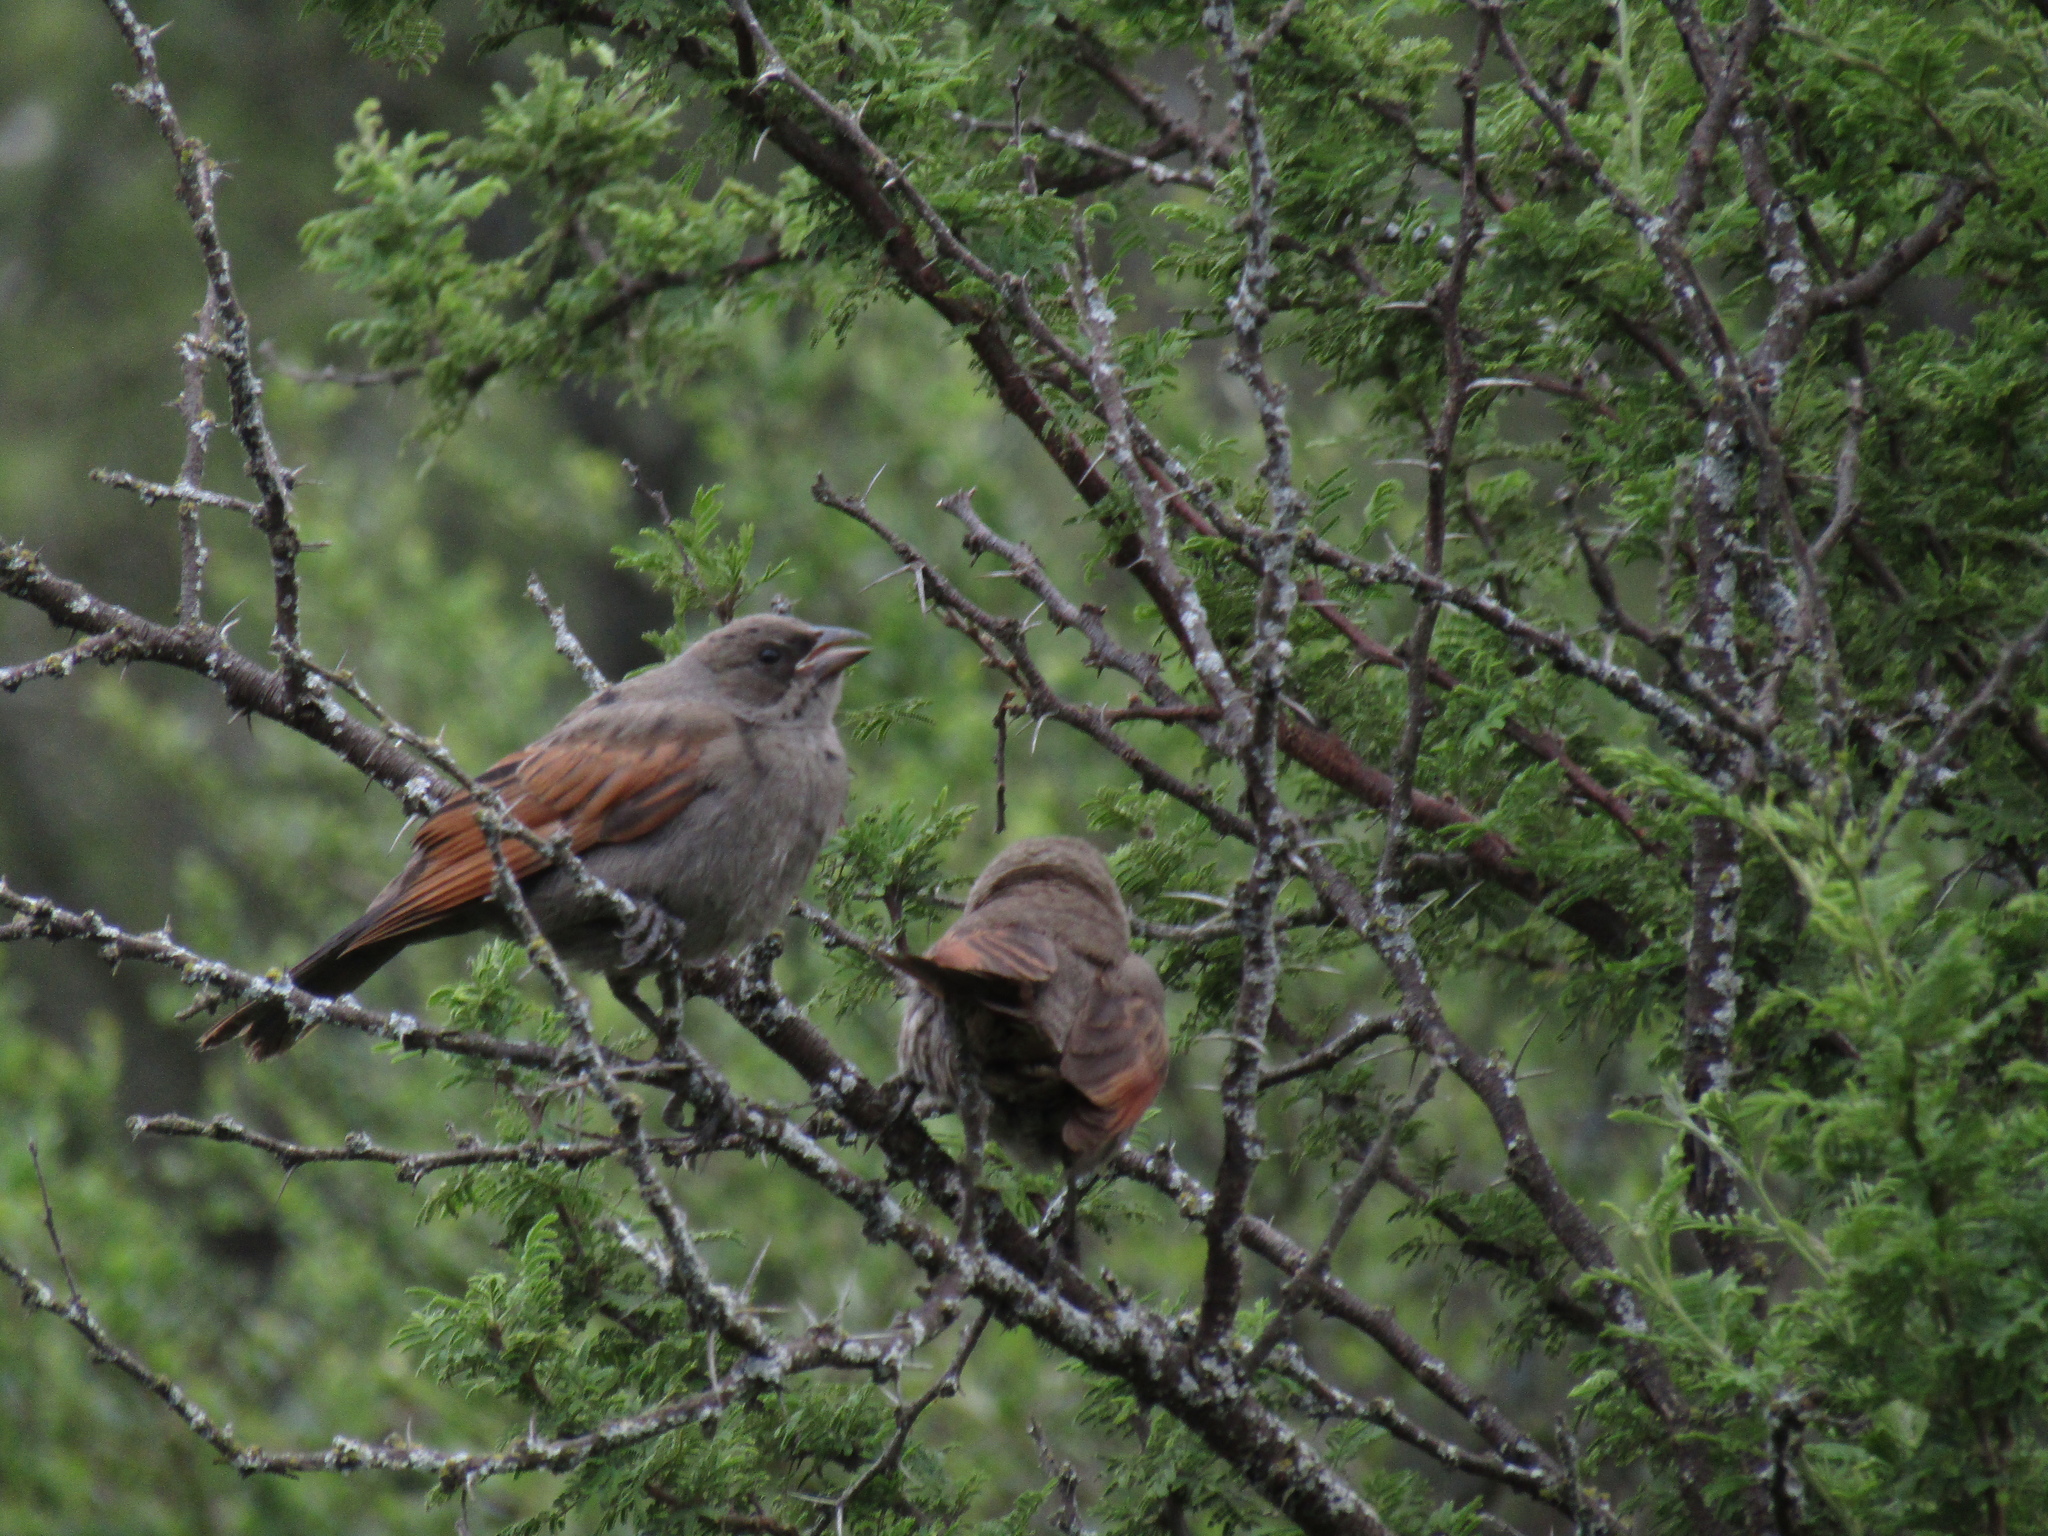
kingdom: Animalia
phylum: Chordata
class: Aves
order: Passeriformes
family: Icteridae
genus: Agelaioides
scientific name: Agelaioides badius
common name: Baywing
